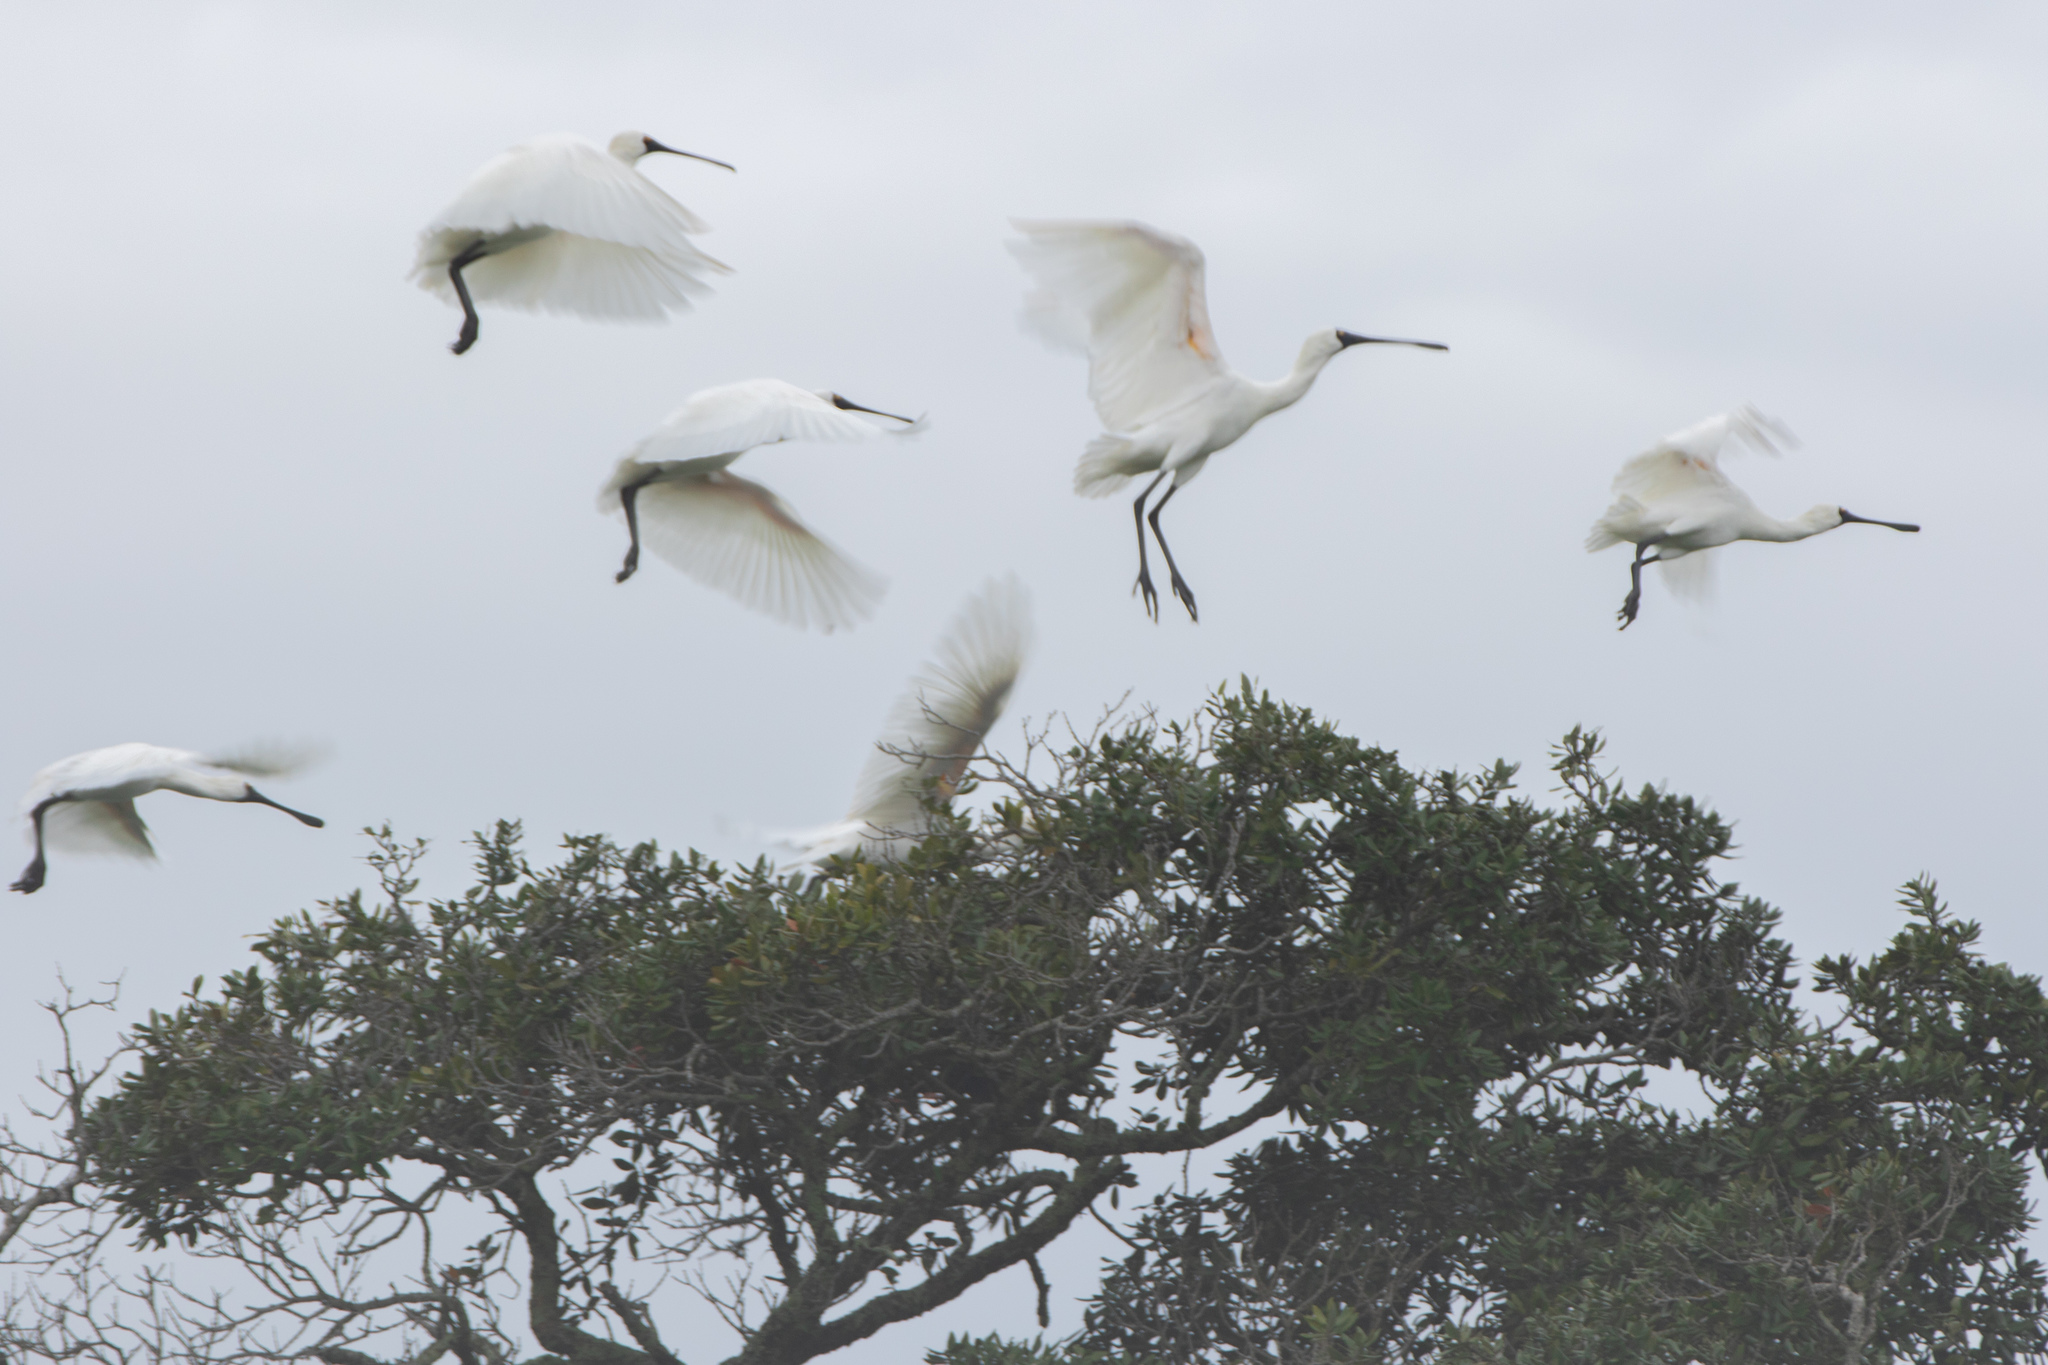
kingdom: Animalia
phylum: Chordata
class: Aves
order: Pelecaniformes
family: Threskiornithidae
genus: Platalea
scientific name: Platalea regia
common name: Royal spoonbill
